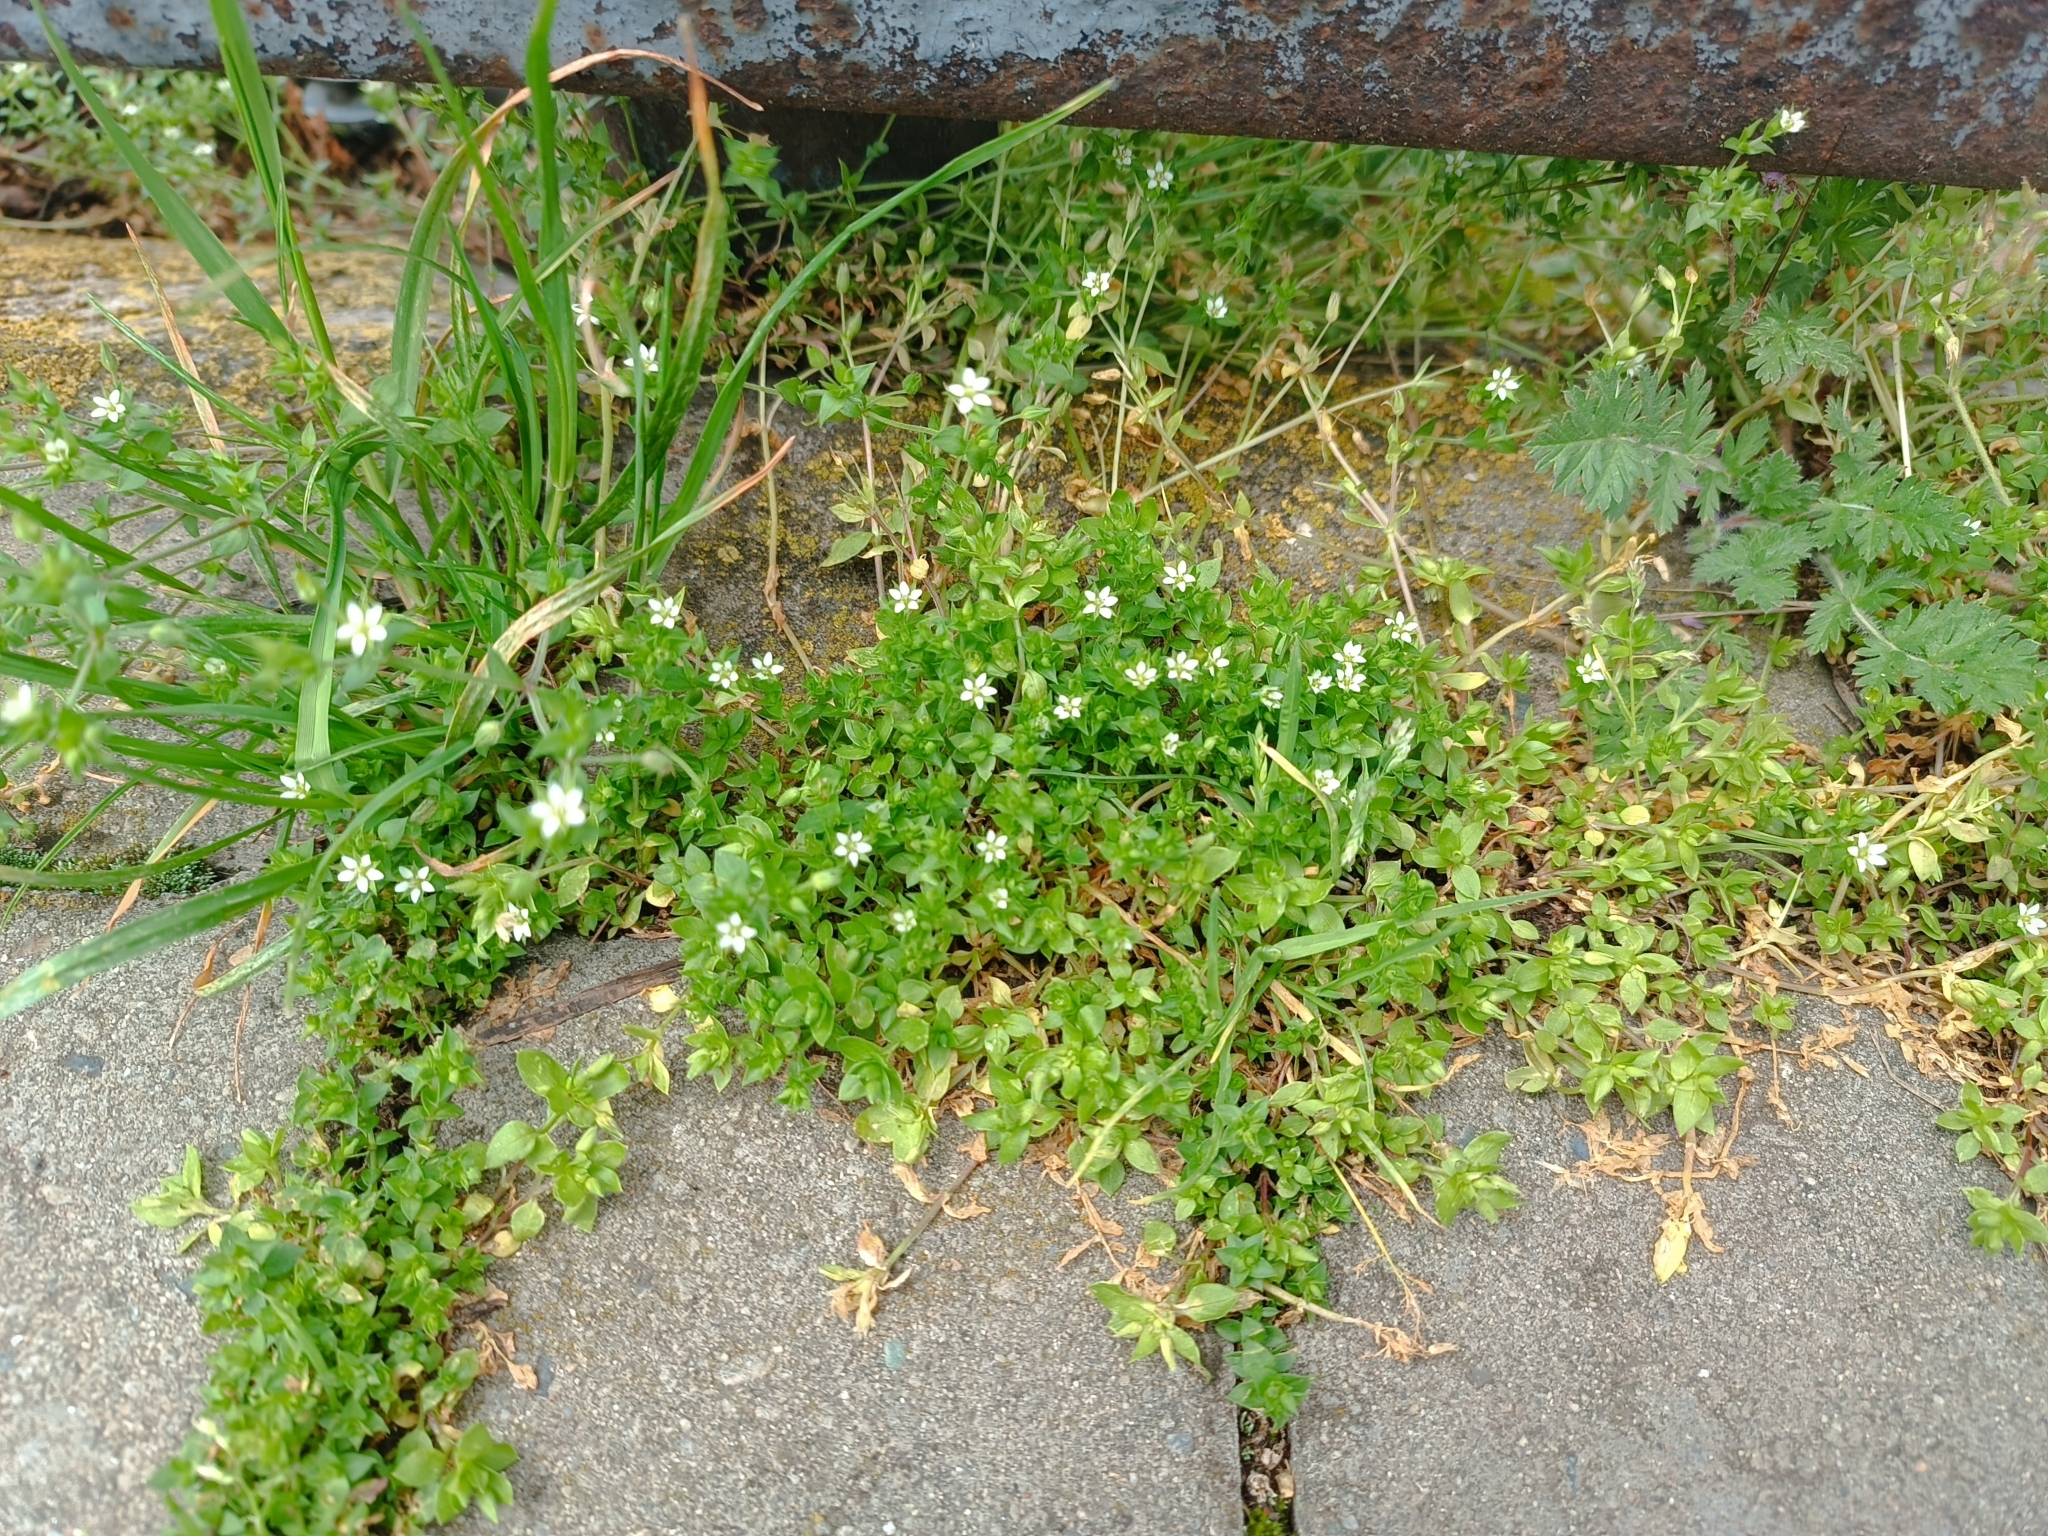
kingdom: Plantae
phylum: Tracheophyta
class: Magnoliopsida
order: Caryophyllales
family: Caryophyllaceae
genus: Arenaria
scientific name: Arenaria serpyllifolia
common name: Thyme-leaved sandwort
